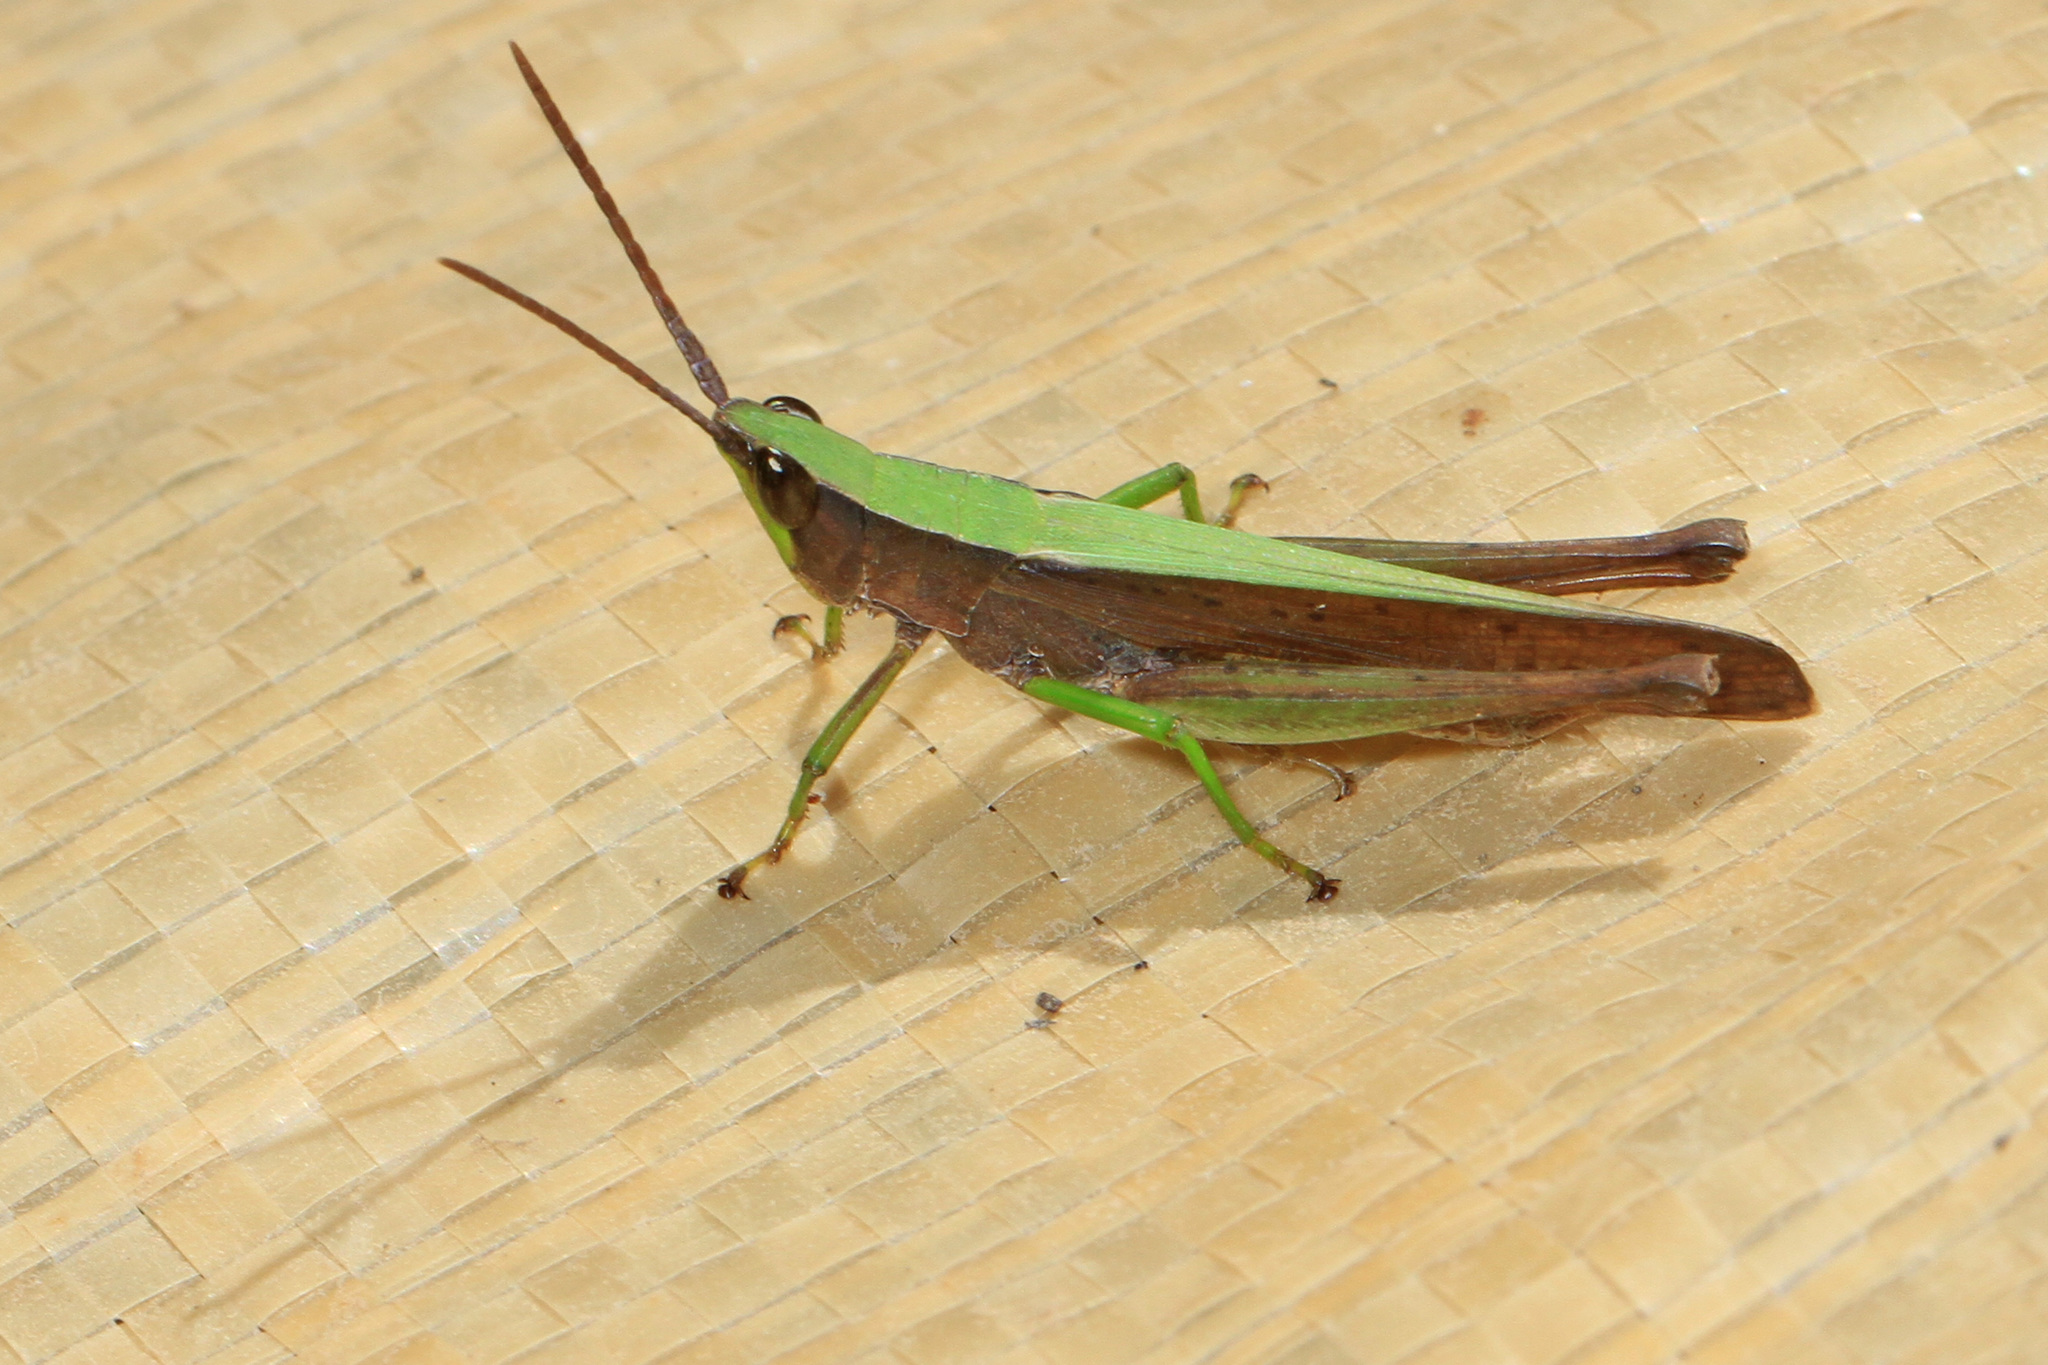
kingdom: Animalia
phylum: Arthropoda
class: Insecta
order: Orthoptera
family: Acrididae
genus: Metaleptea
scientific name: Metaleptea brevicornis
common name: Clipped-wing grasshopper
